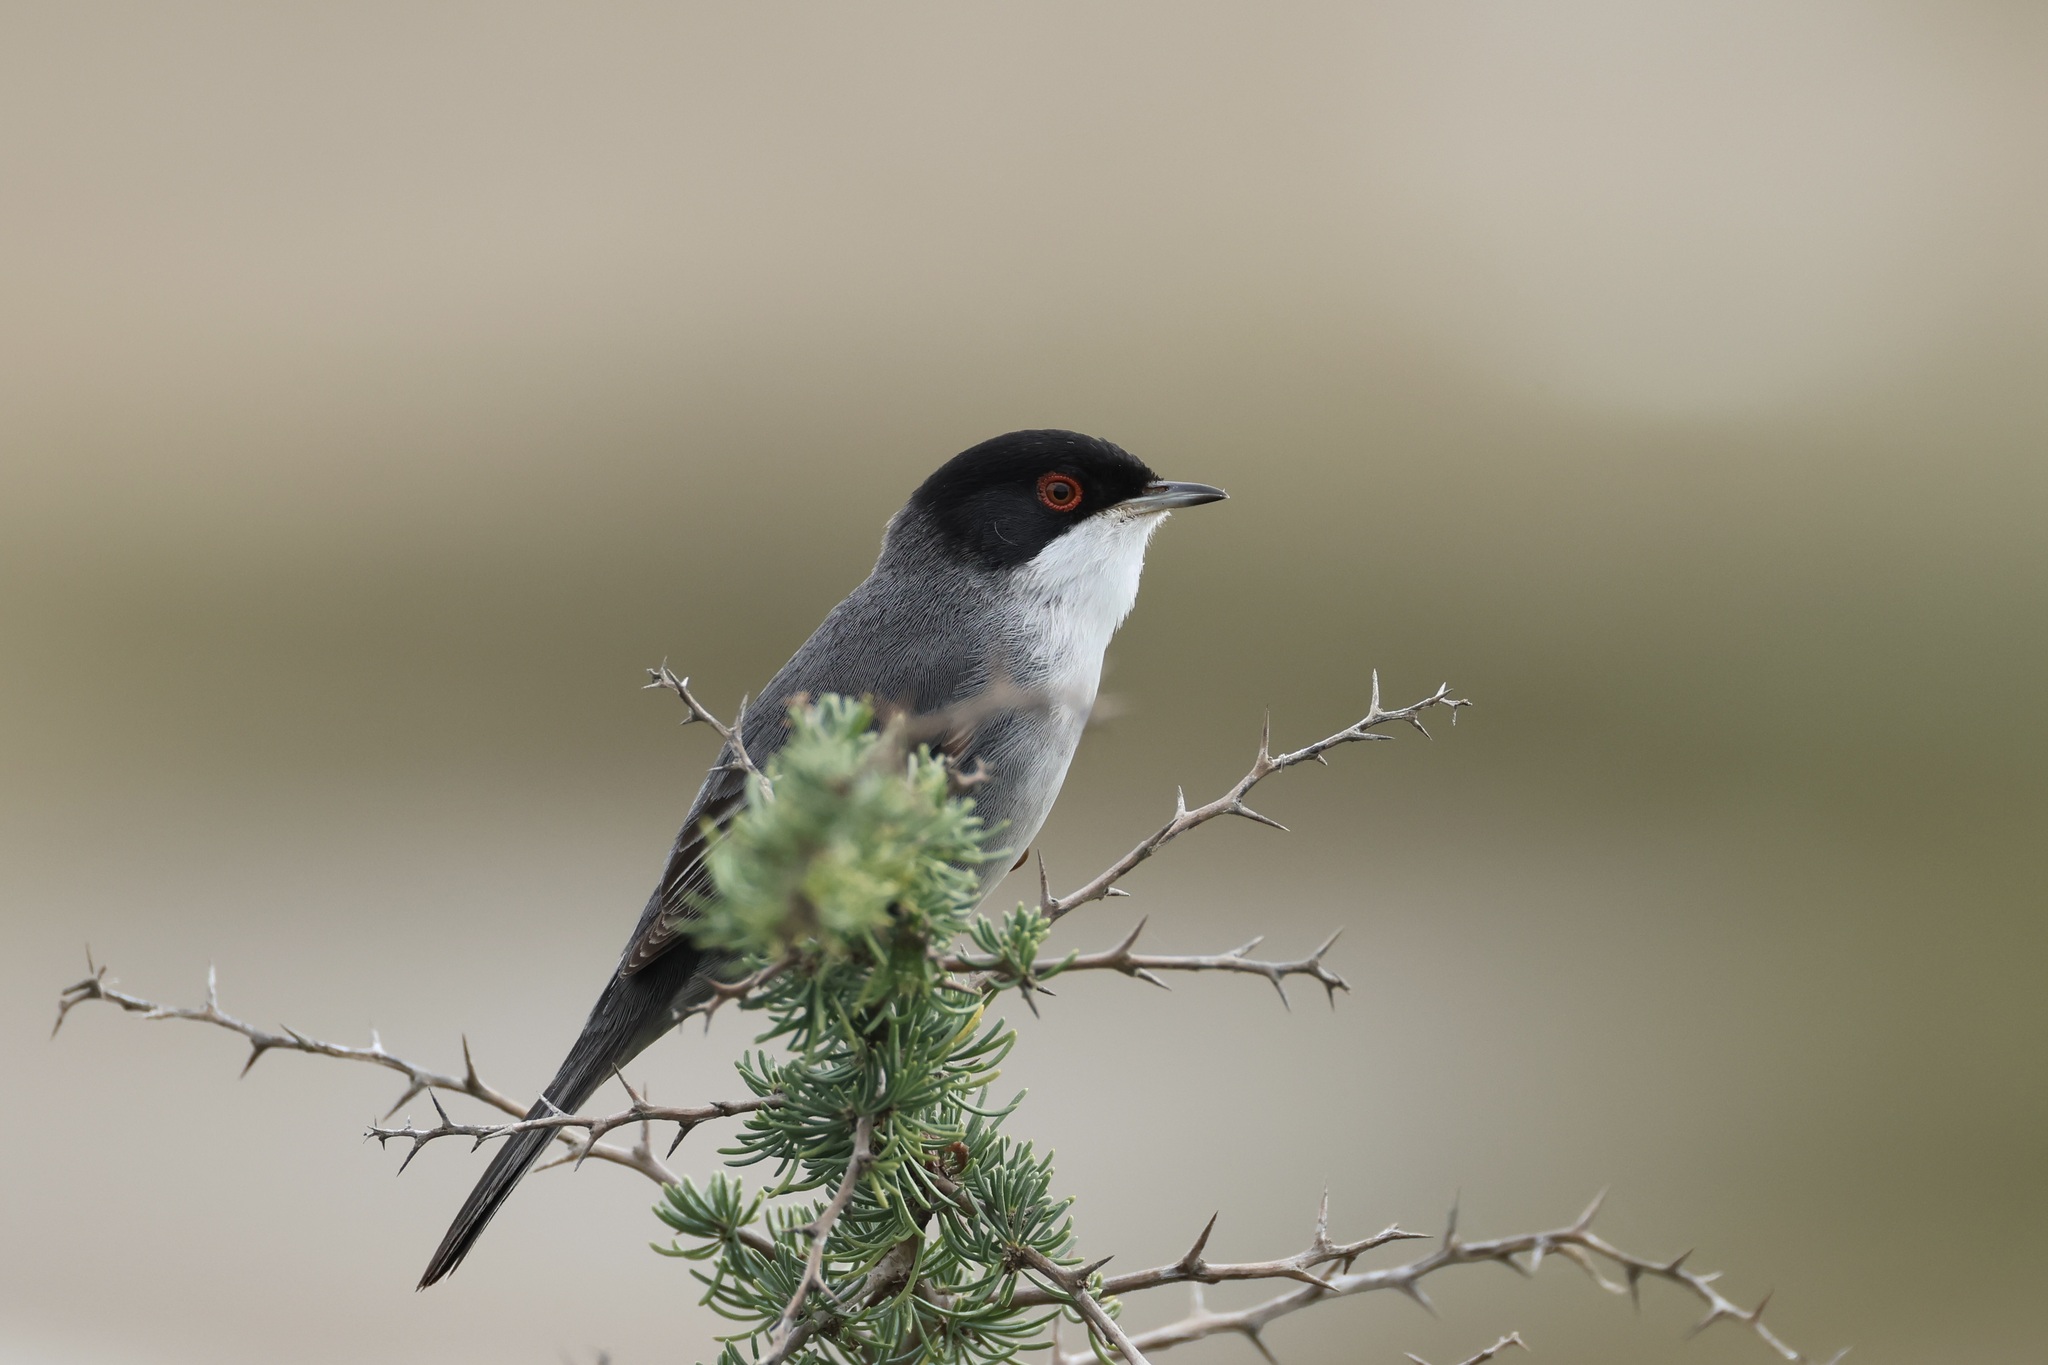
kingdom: Animalia
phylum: Chordata
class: Aves
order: Passeriformes
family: Sylviidae
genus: Curruca
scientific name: Curruca melanocephala
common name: Sardinian warbler
